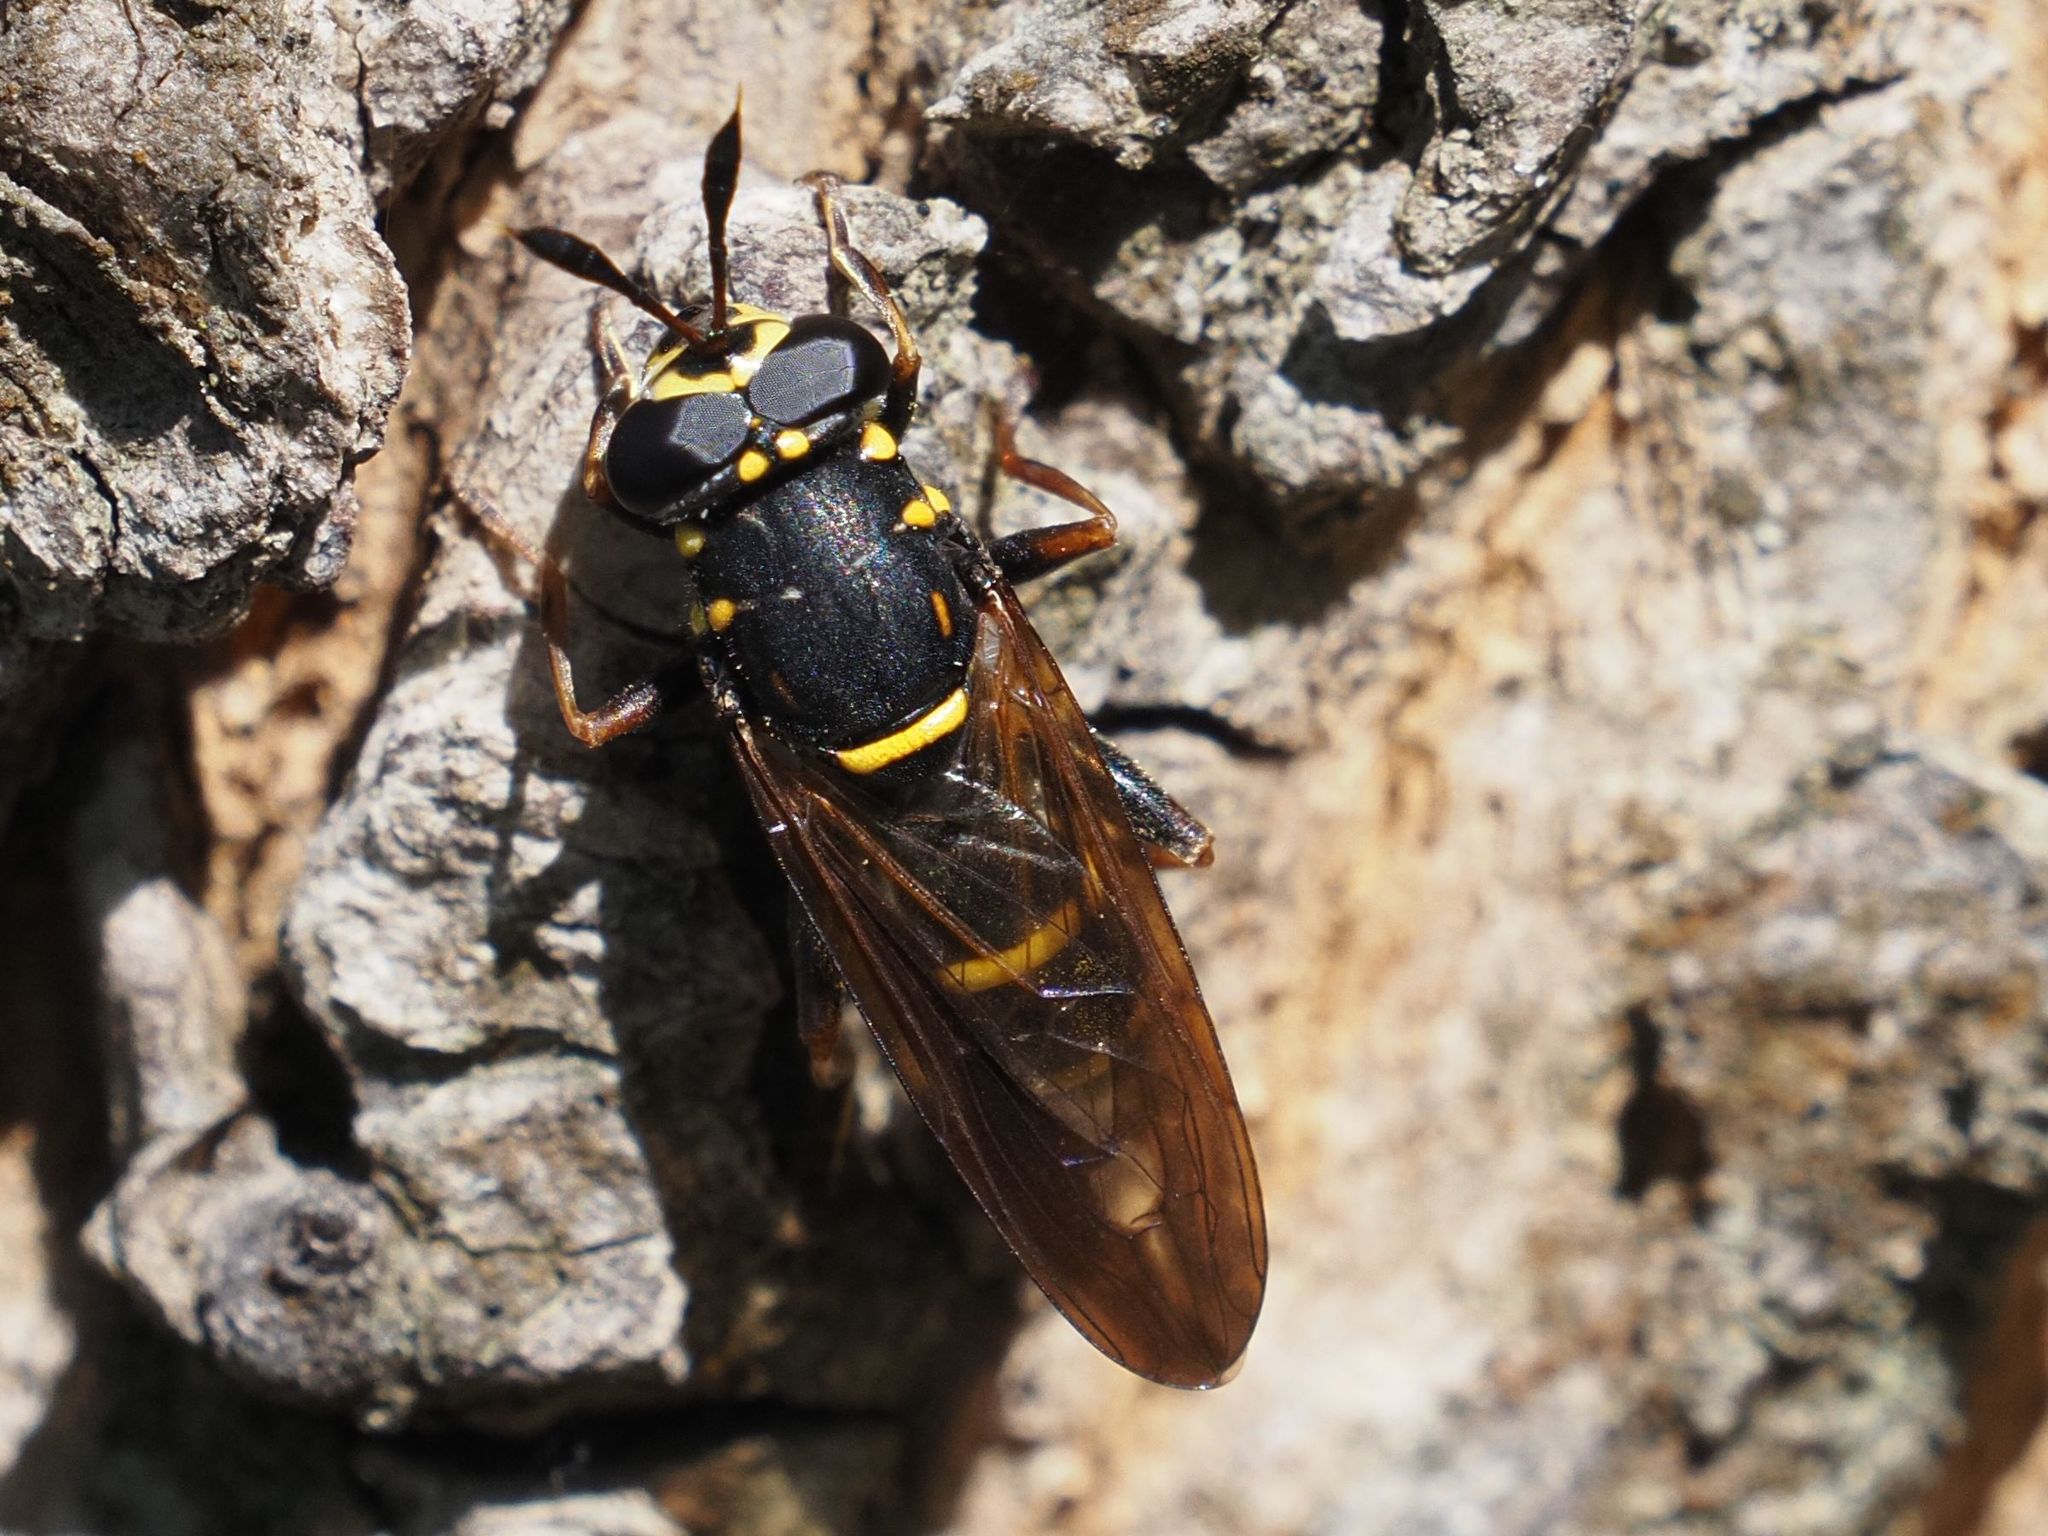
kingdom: Animalia
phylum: Arthropoda
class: Insecta
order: Diptera
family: Syrphidae
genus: Sphiximorpha
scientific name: Sphiximorpha subsessilis
